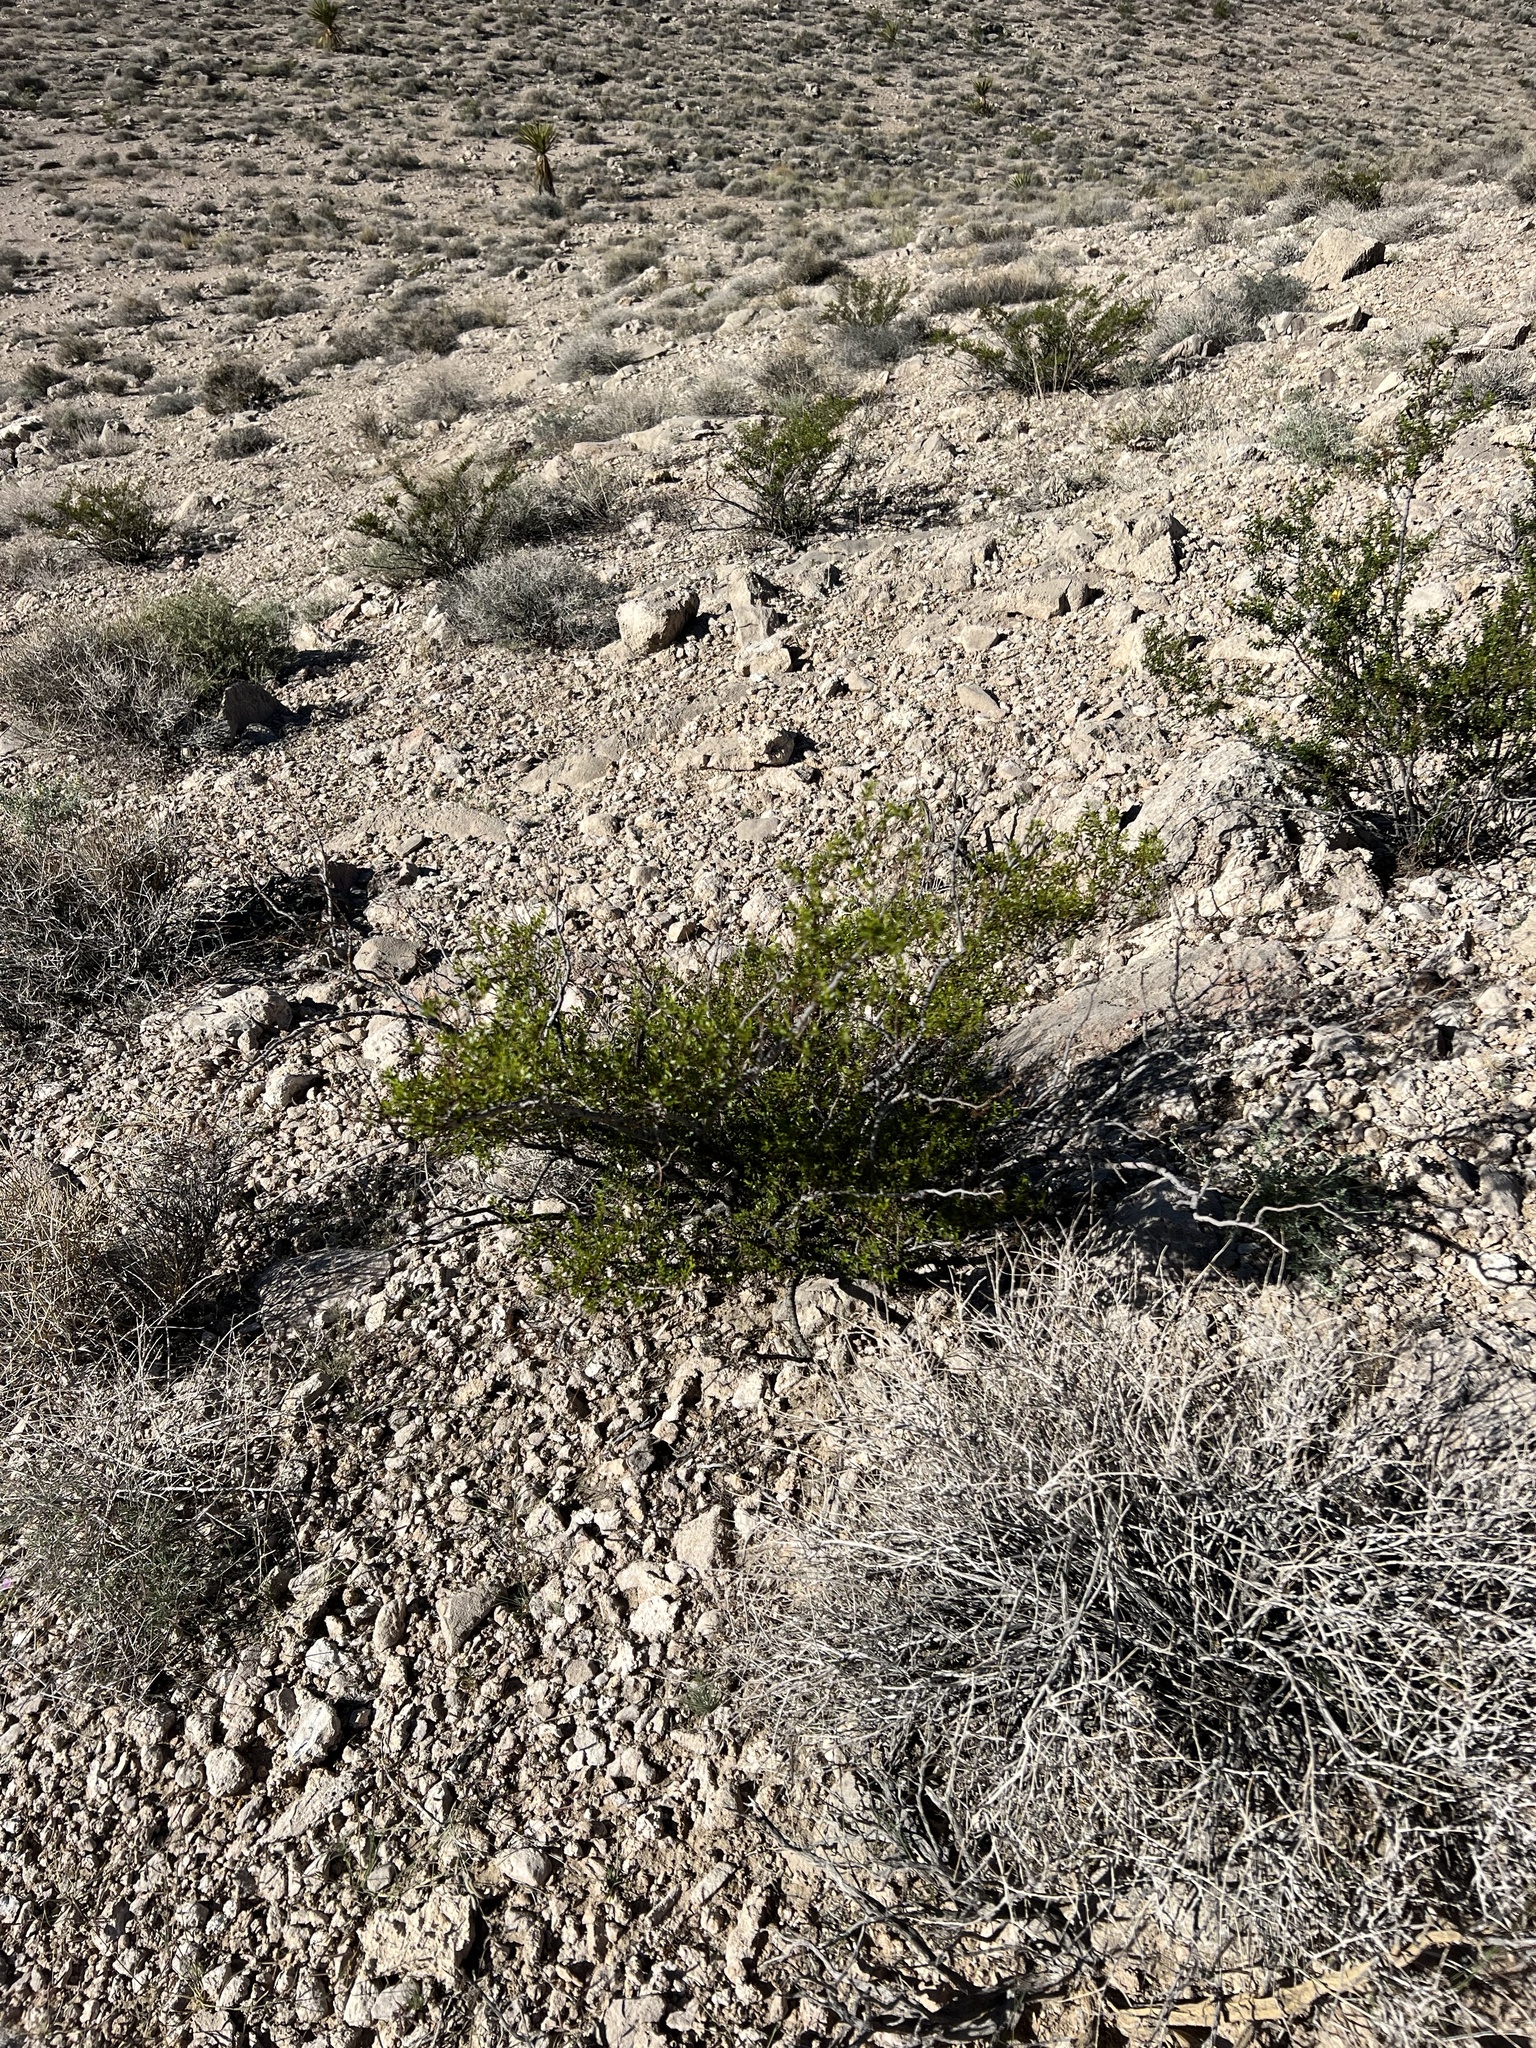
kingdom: Plantae
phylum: Tracheophyta
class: Magnoliopsida
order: Zygophyllales
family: Zygophyllaceae
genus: Larrea
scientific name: Larrea tridentata
